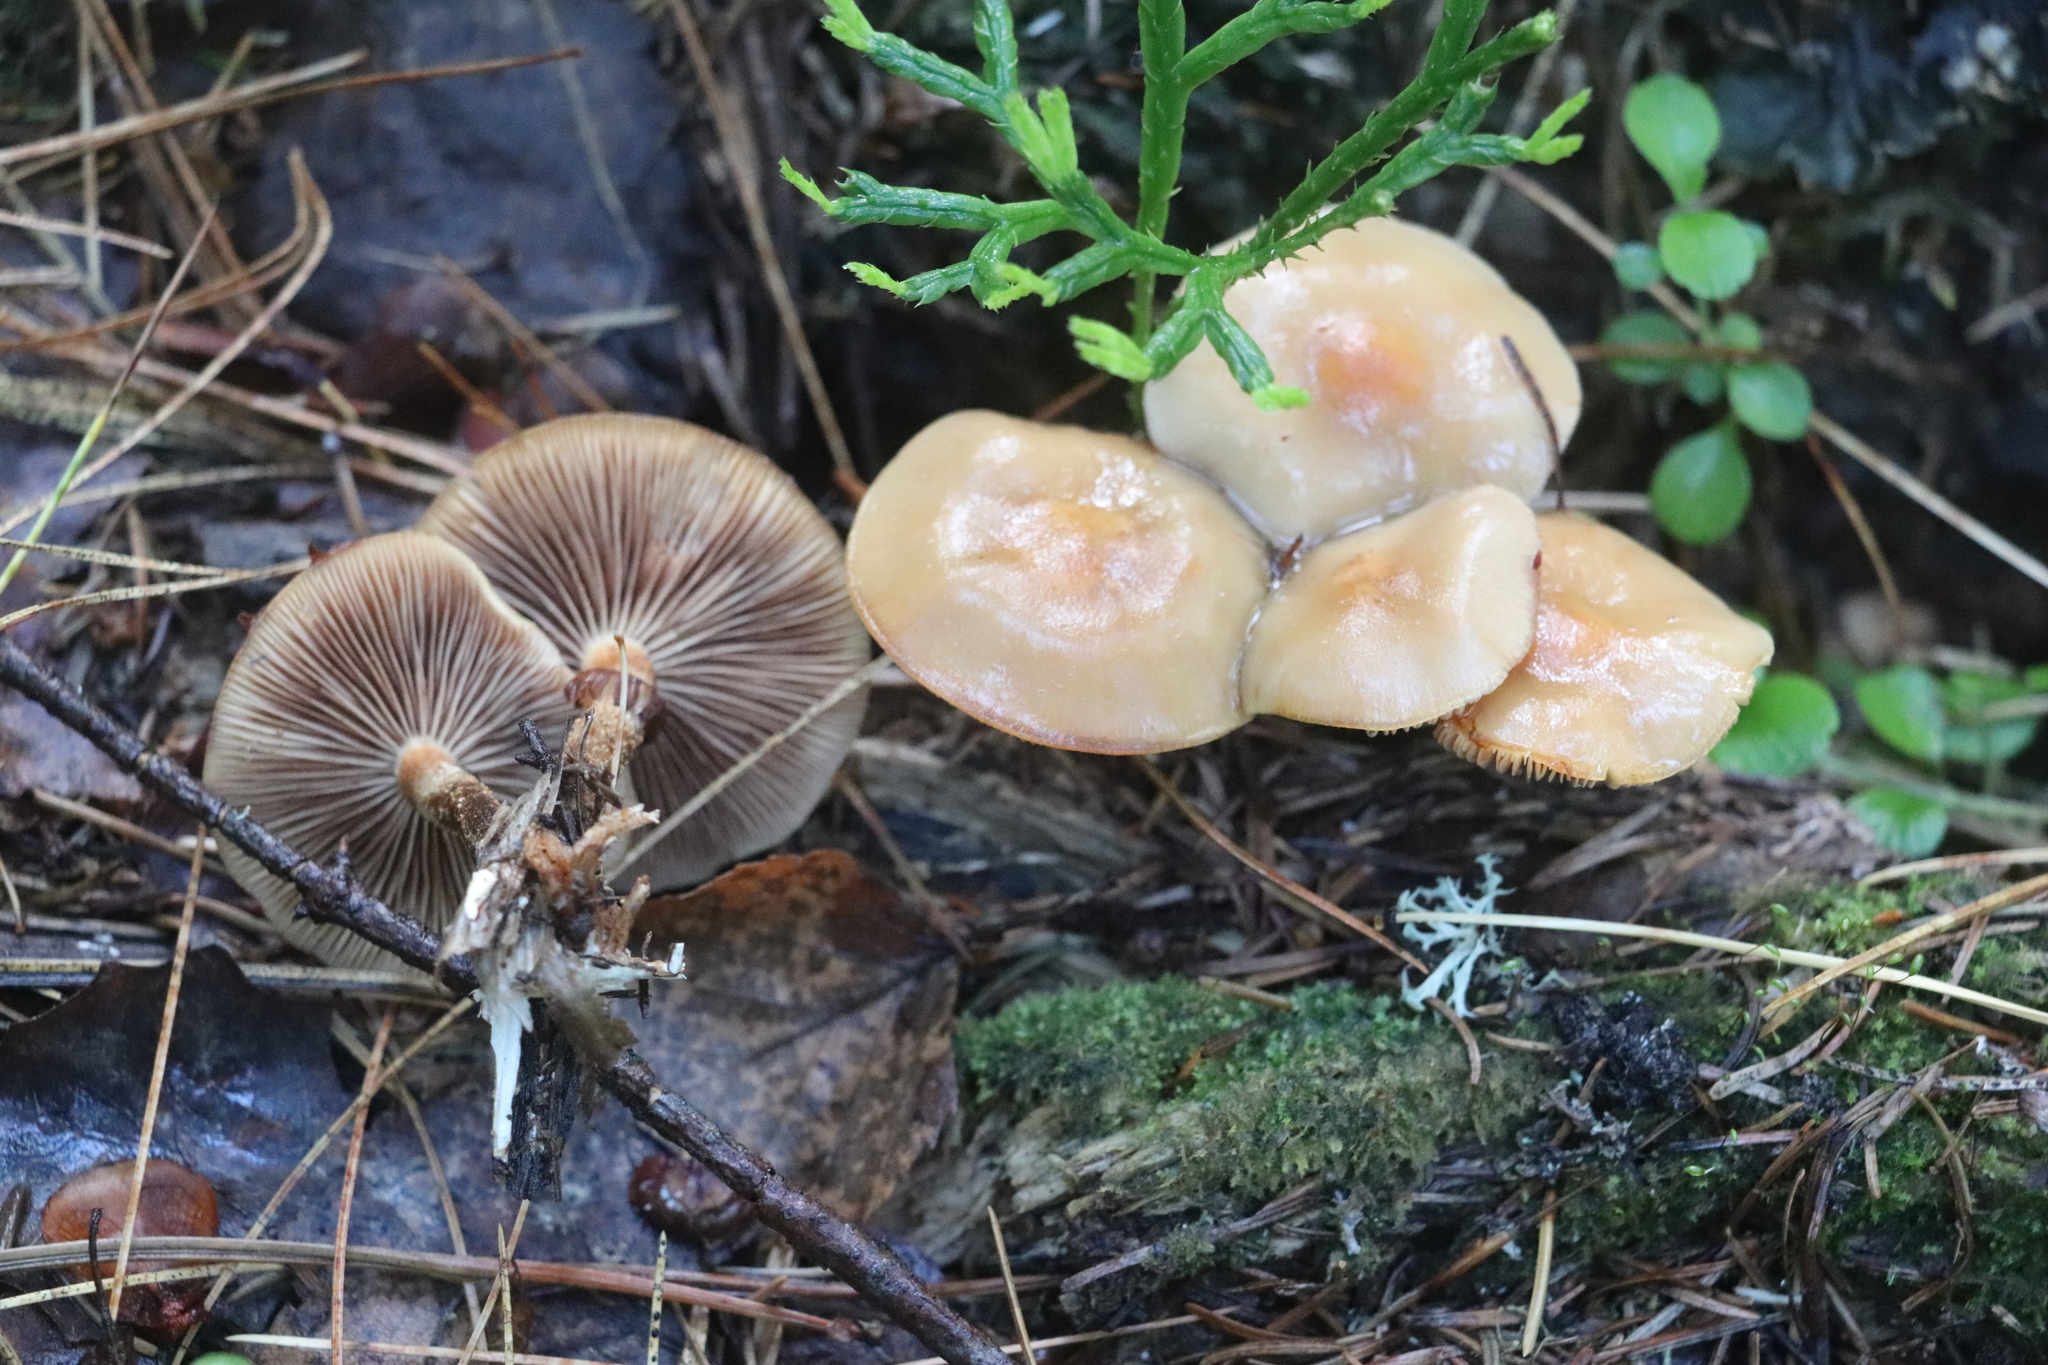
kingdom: Fungi
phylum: Basidiomycota
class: Agaricomycetes
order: Agaricales
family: Strophariaceae
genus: Kuehneromyces
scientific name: Kuehneromyces mutabilis
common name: Sheathed woodtuft
